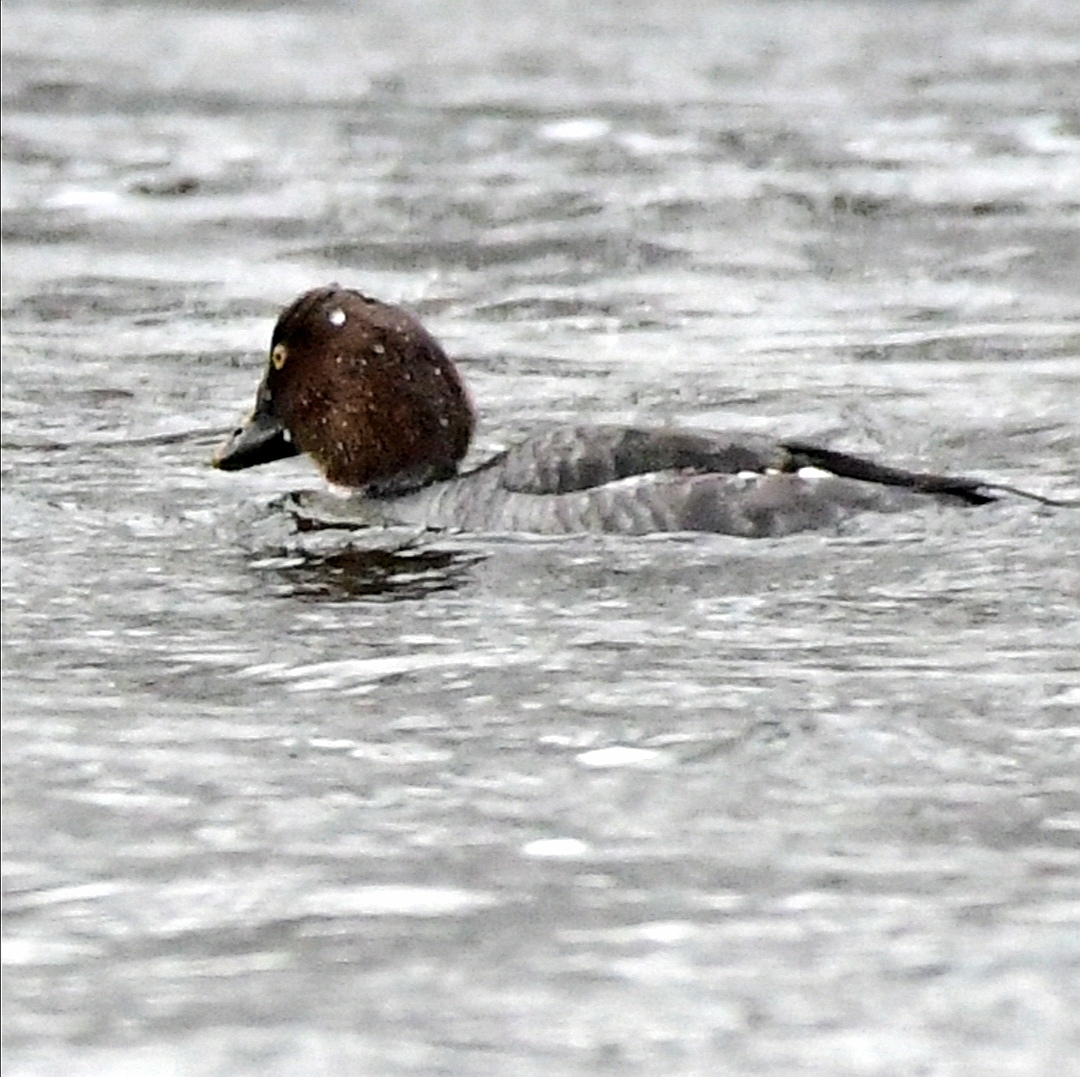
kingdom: Animalia
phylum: Chordata
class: Aves
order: Anseriformes
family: Anatidae
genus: Bucephala
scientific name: Bucephala clangula
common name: Common goldeneye
